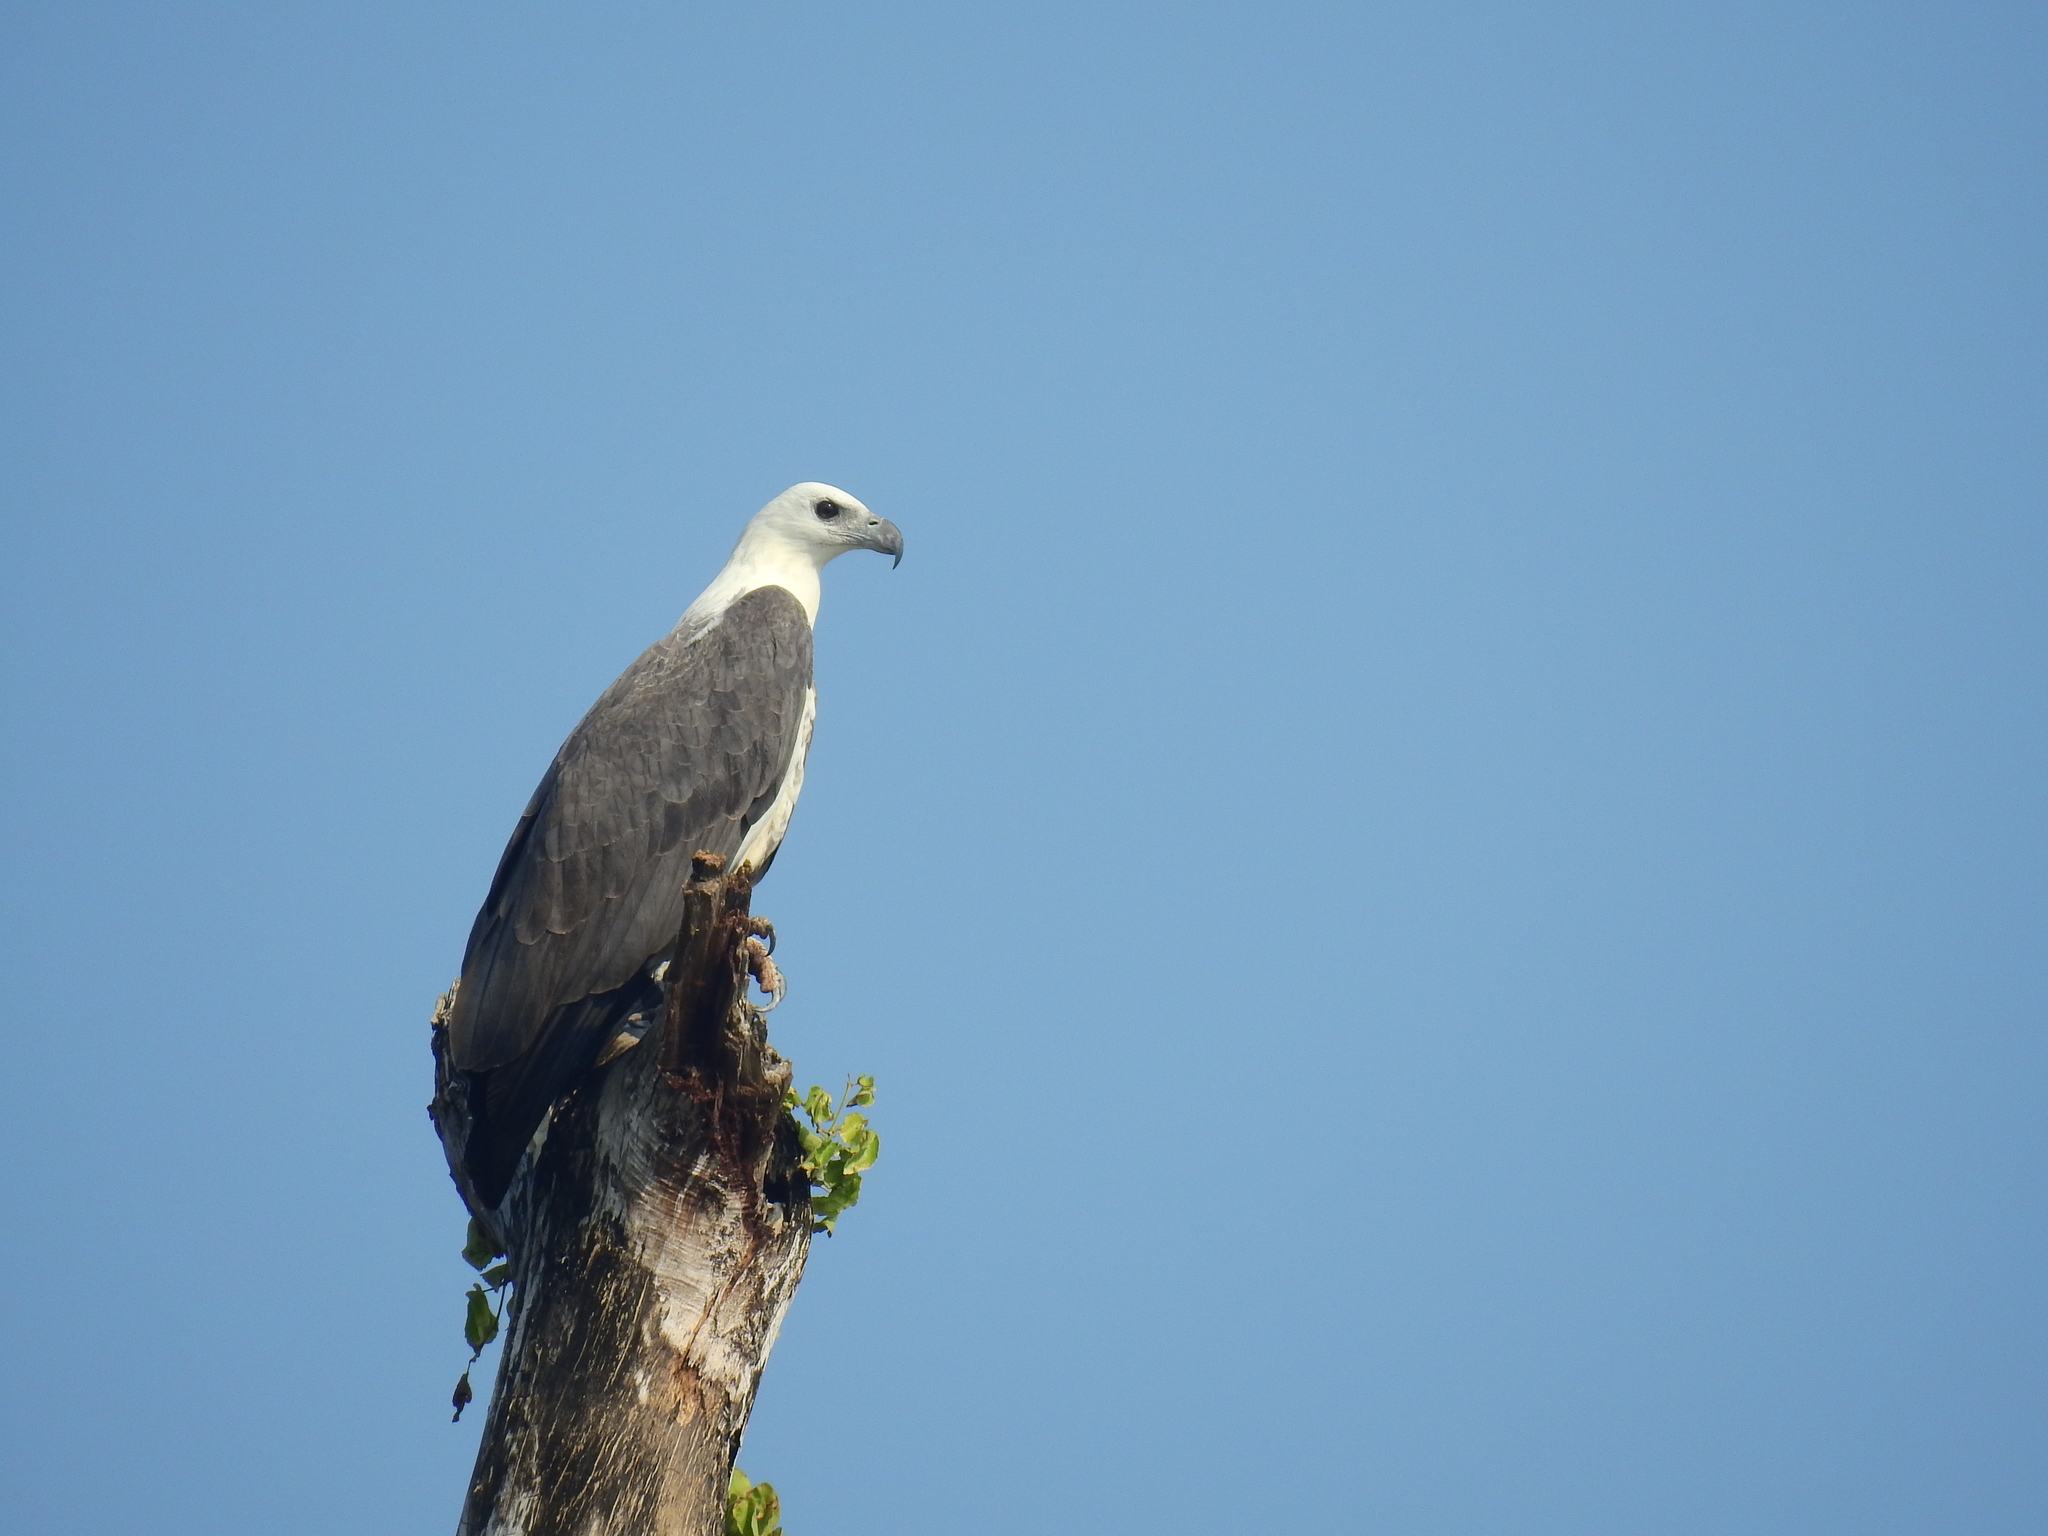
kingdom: Animalia
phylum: Chordata
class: Aves
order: Accipitriformes
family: Accipitridae
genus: Haliaeetus
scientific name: Haliaeetus leucogaster
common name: White-bellied sea eagle
